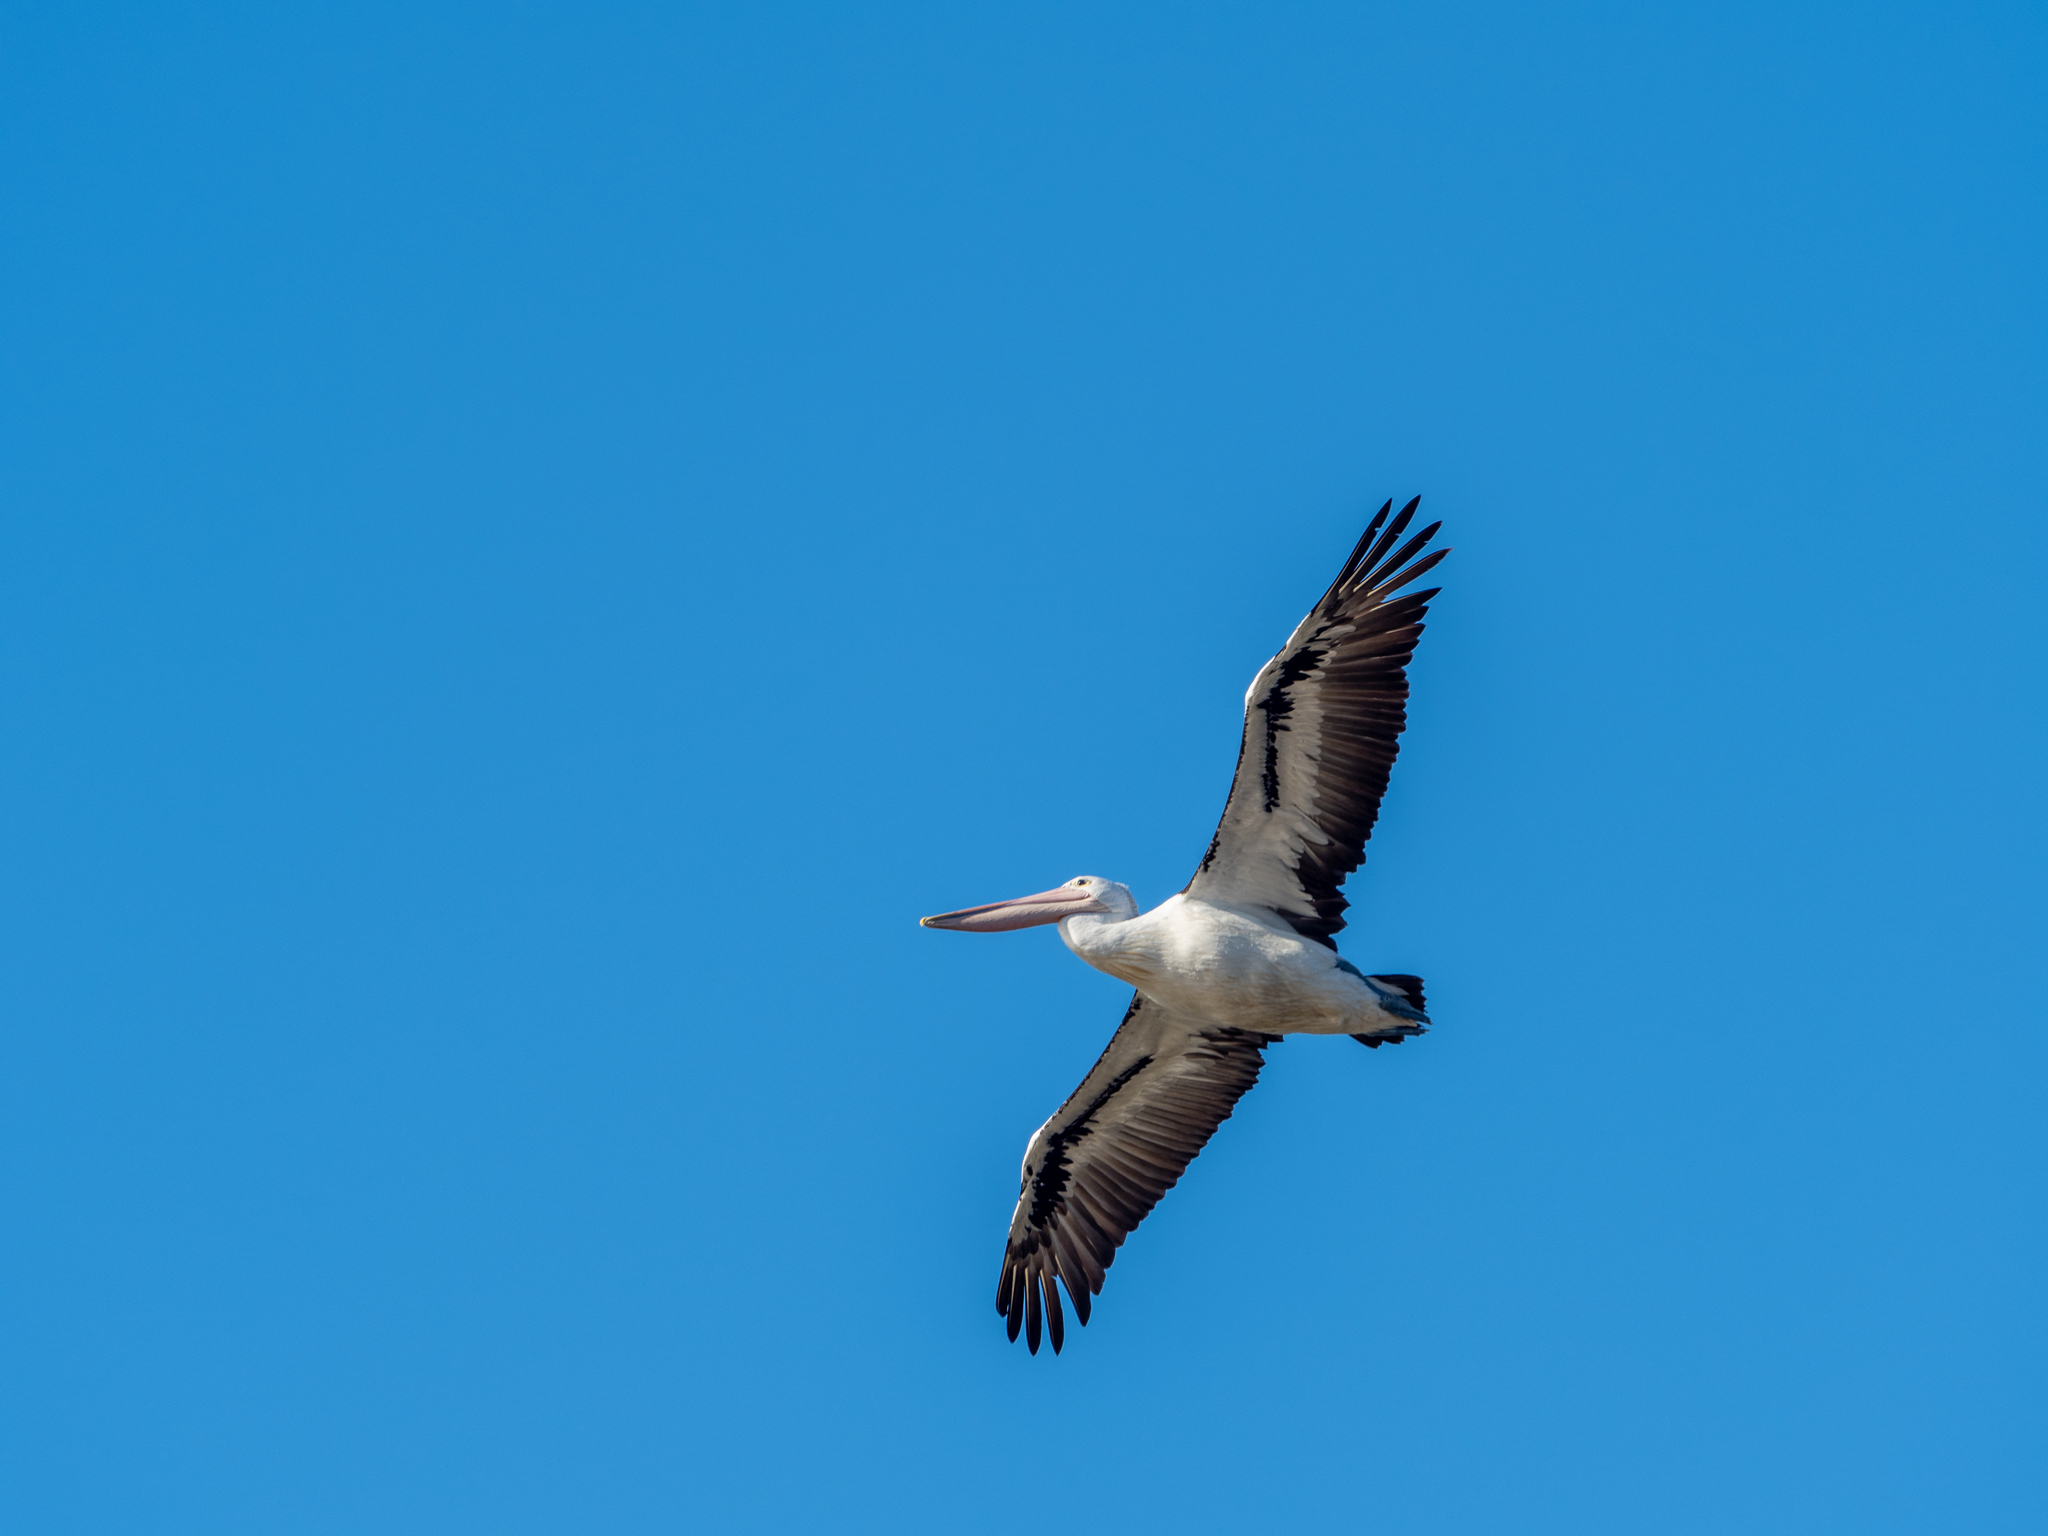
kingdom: Animalia
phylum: Chordata
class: Aves
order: Pelecaniformes
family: Pelecanidae
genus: Pelecanus
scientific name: Pelecanus conspicillatus
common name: Australian pelican
